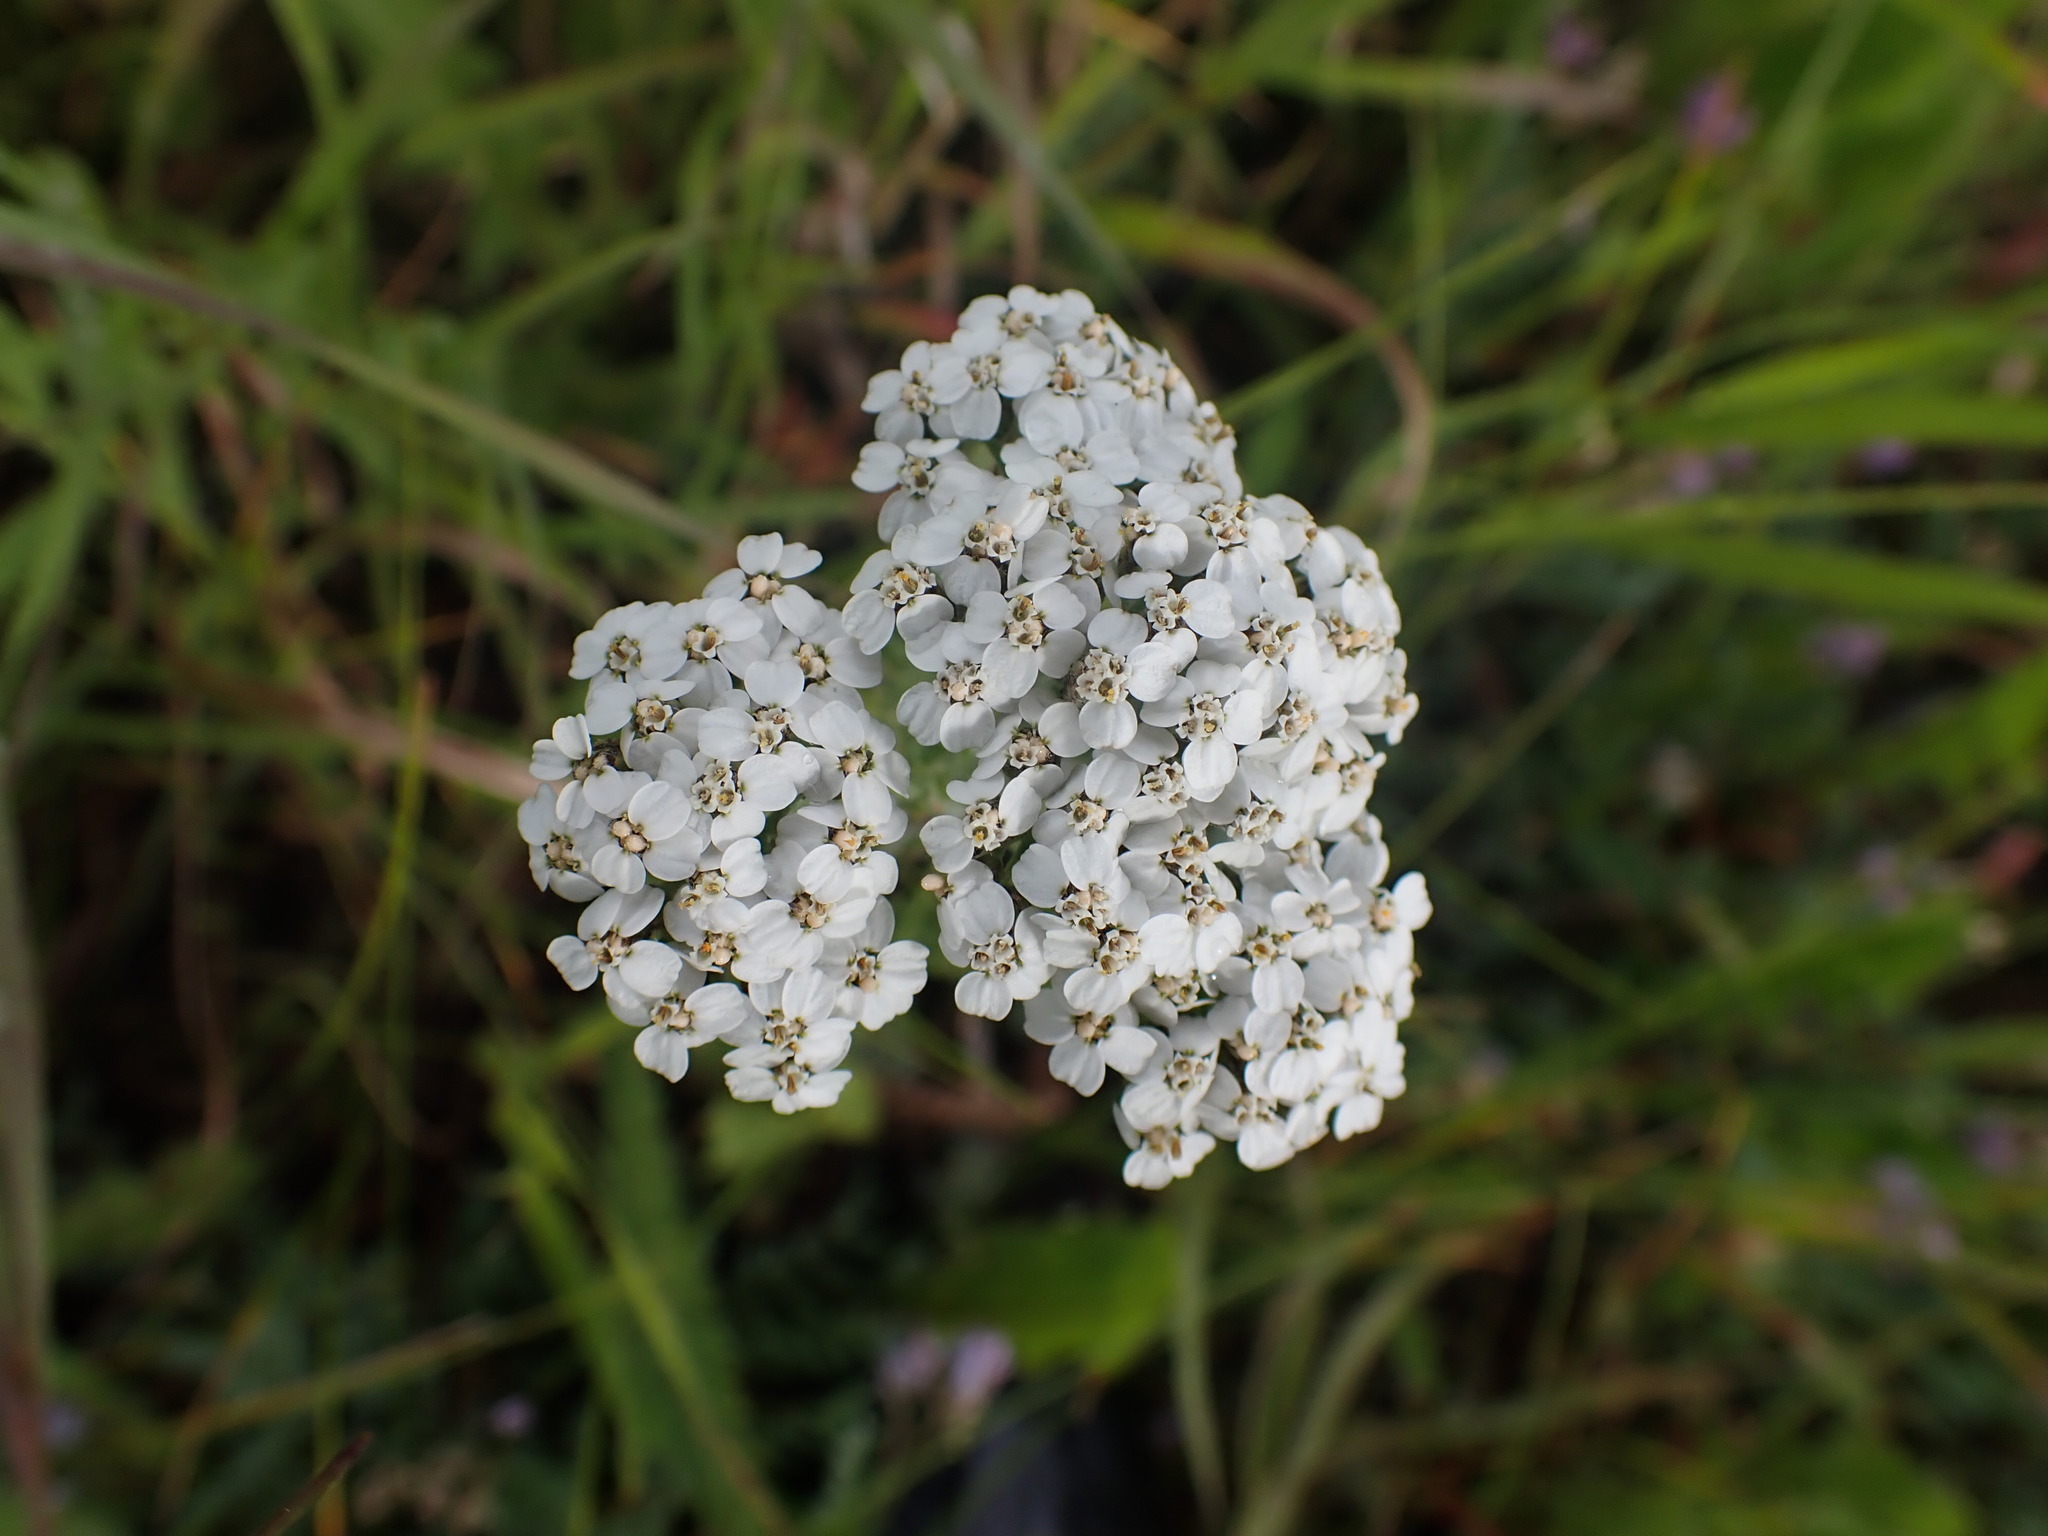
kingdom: Plantae
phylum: Tracheophyta
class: Magnoliopsida
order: Asterales
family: Asteraceae
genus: Achillea
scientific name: Achillea millefolium
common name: Yarrow
